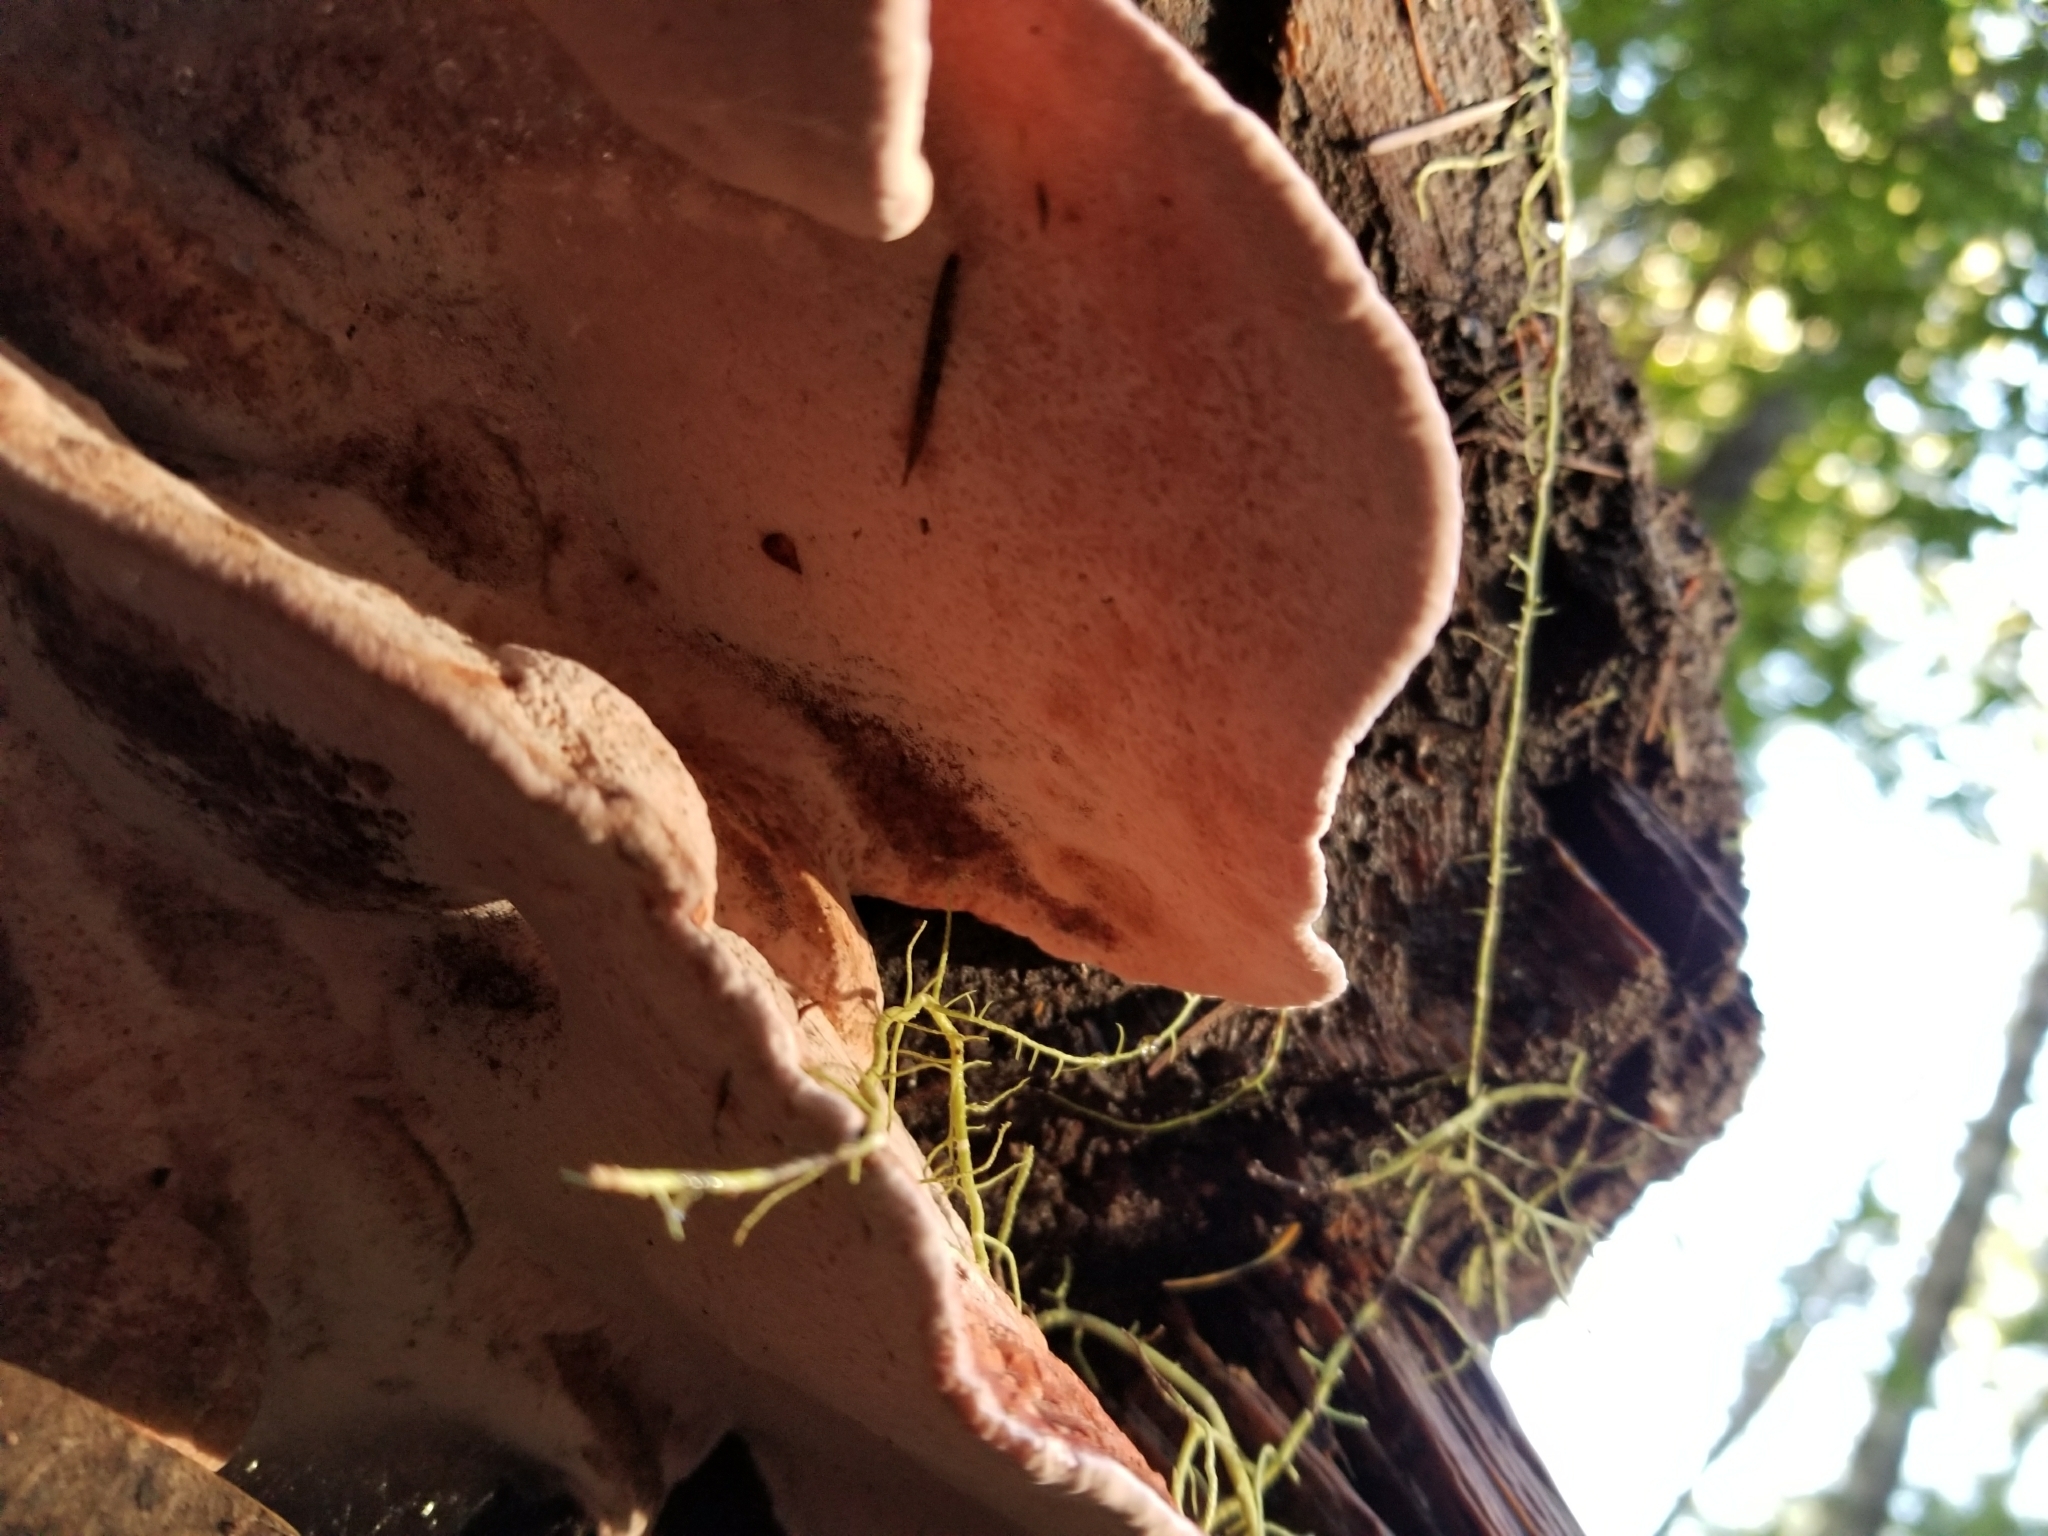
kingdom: Fungi
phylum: Basidiomycota
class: Agaricomycetes
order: Polyporales
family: Fomitopsidaceae
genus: Rhodofomes
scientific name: Rhodofomes cajanderi
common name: Rosy conk
